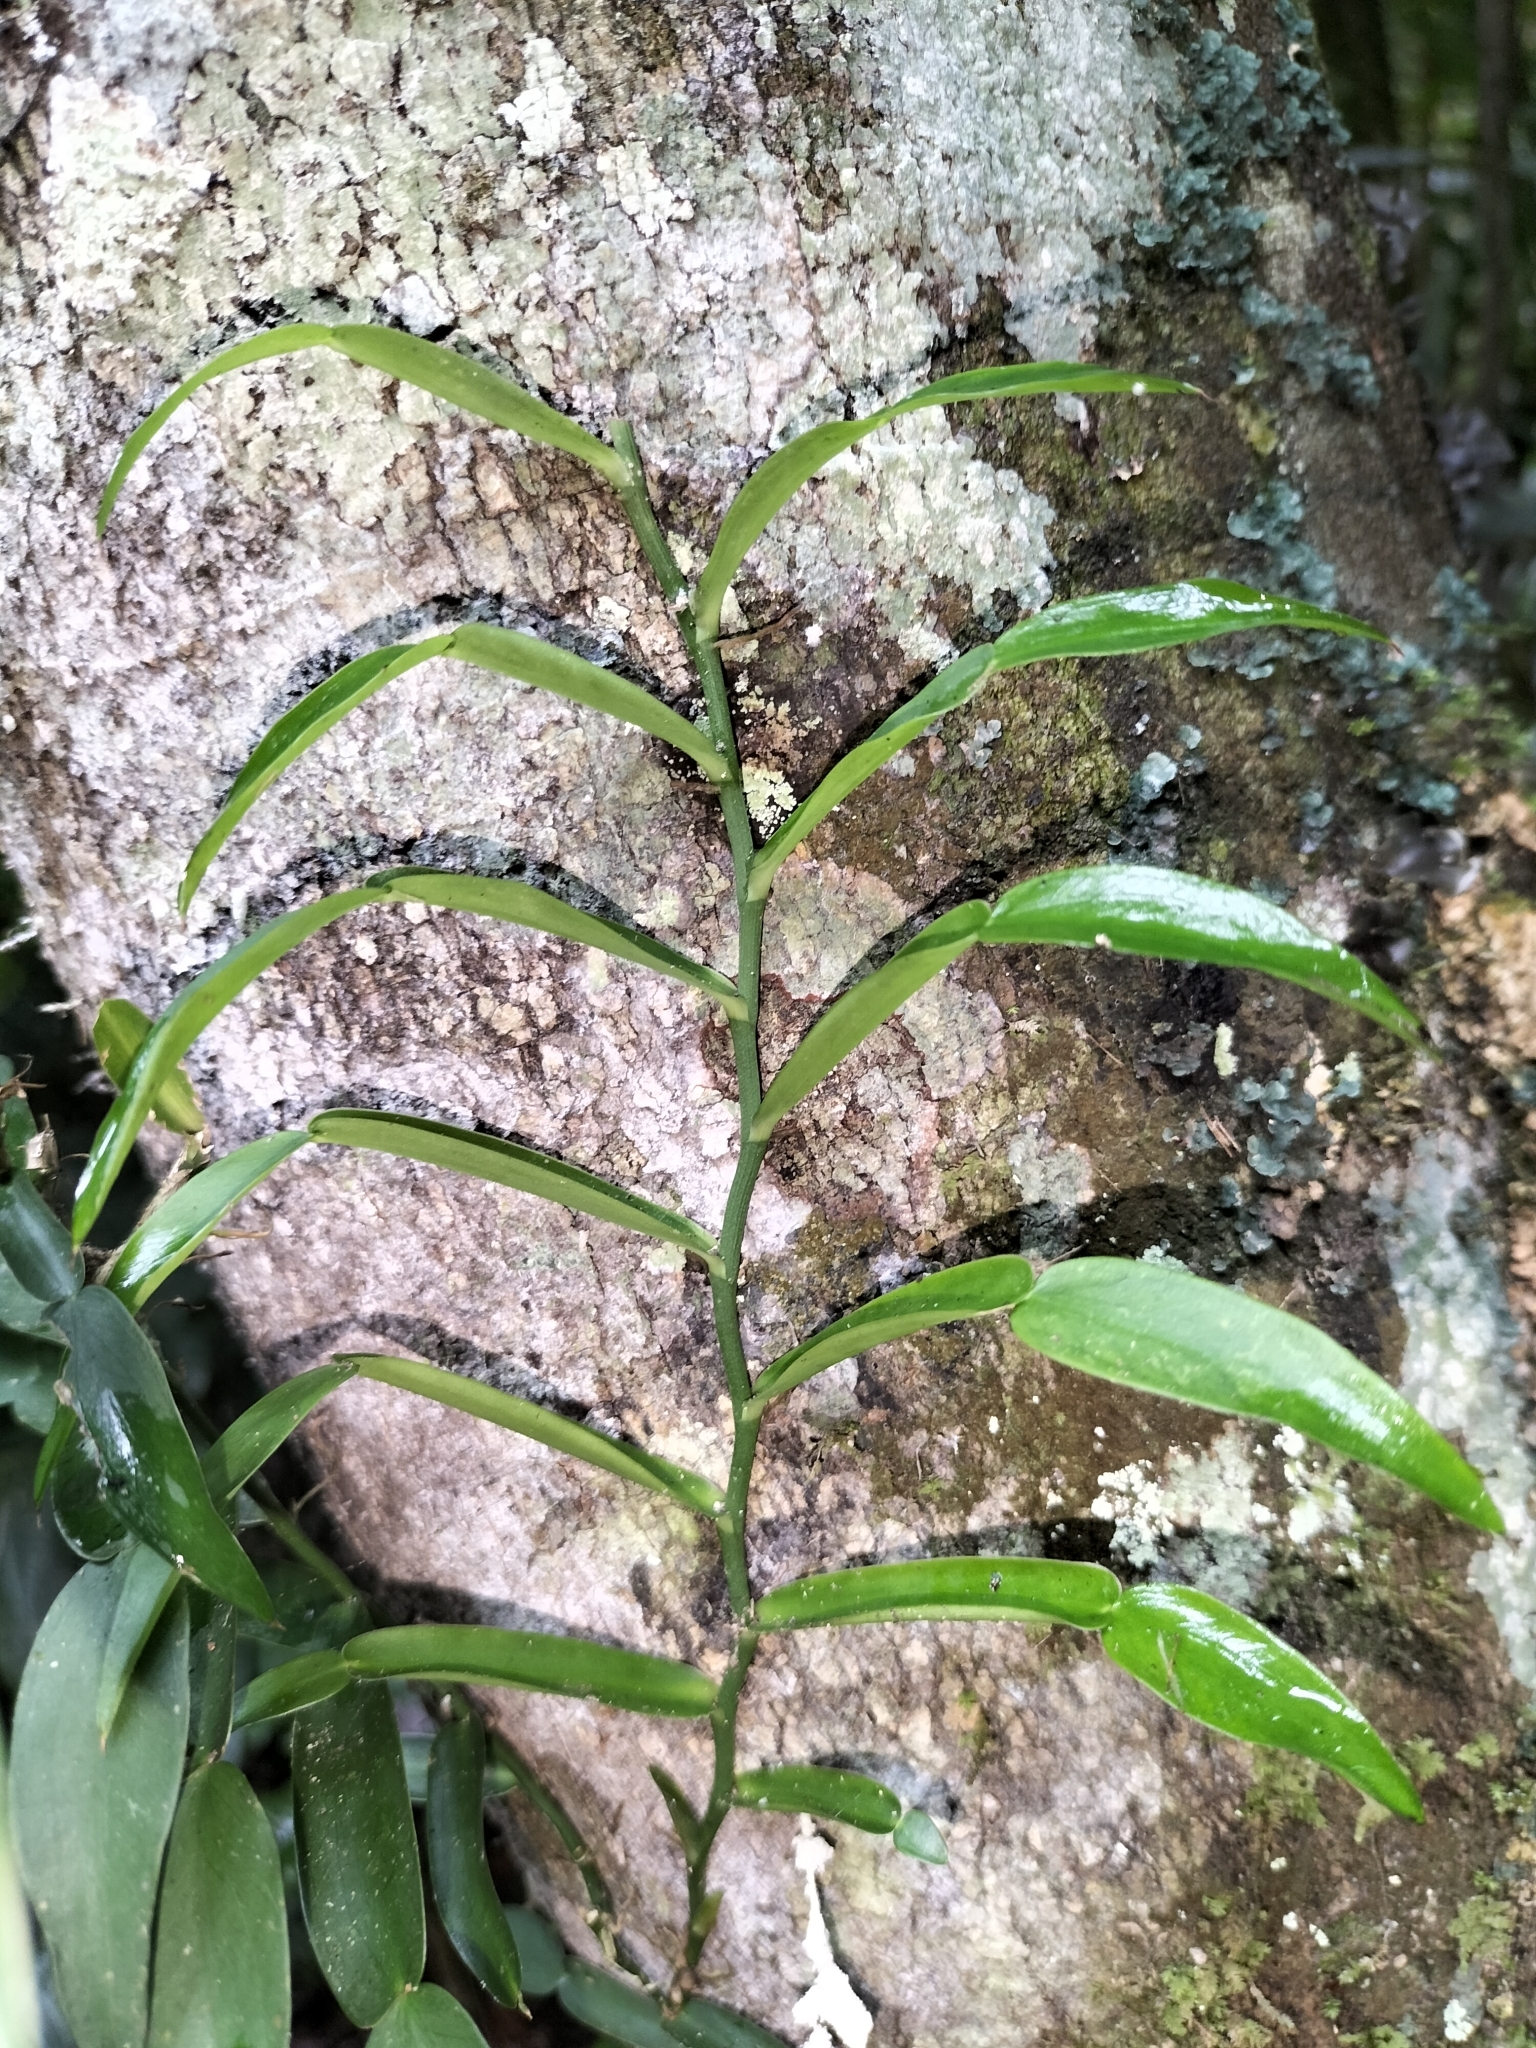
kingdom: Plantae
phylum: Tracheophyta
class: Liliopsida
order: Alismatales
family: Araceae
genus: Pothos
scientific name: Pothos longipes
